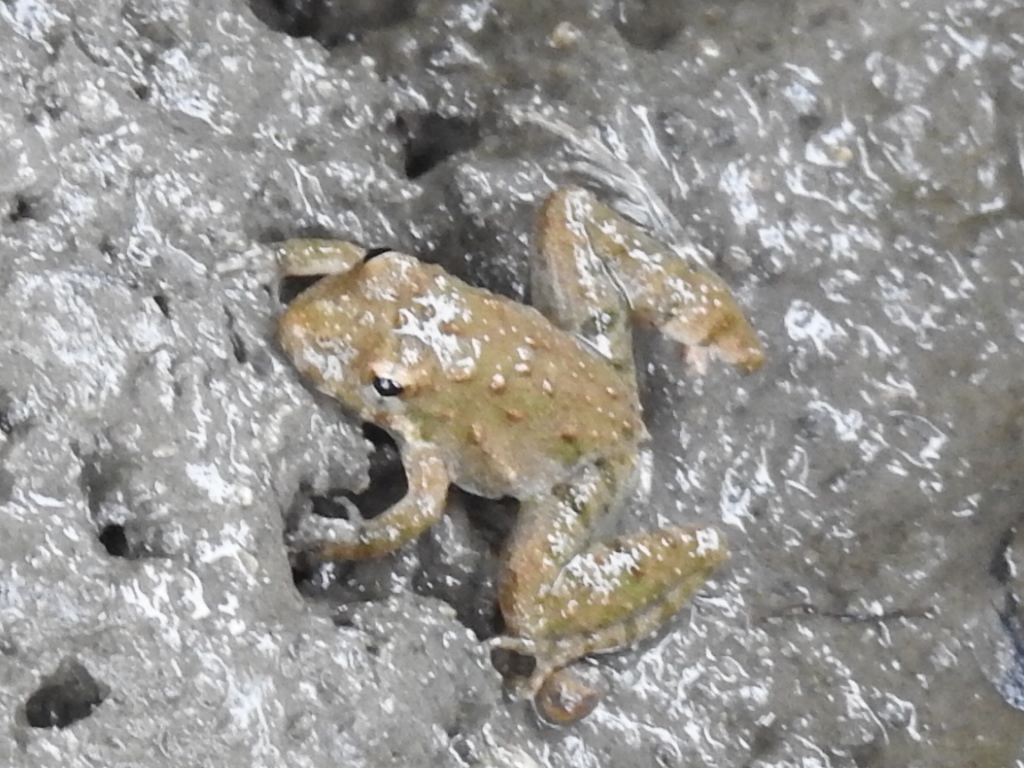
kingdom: Animalia
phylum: Chordata
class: Amphibia
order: Anura
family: Hylidae
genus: Acris
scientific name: Acris blanchardi
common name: Blanchard's cricket frog
